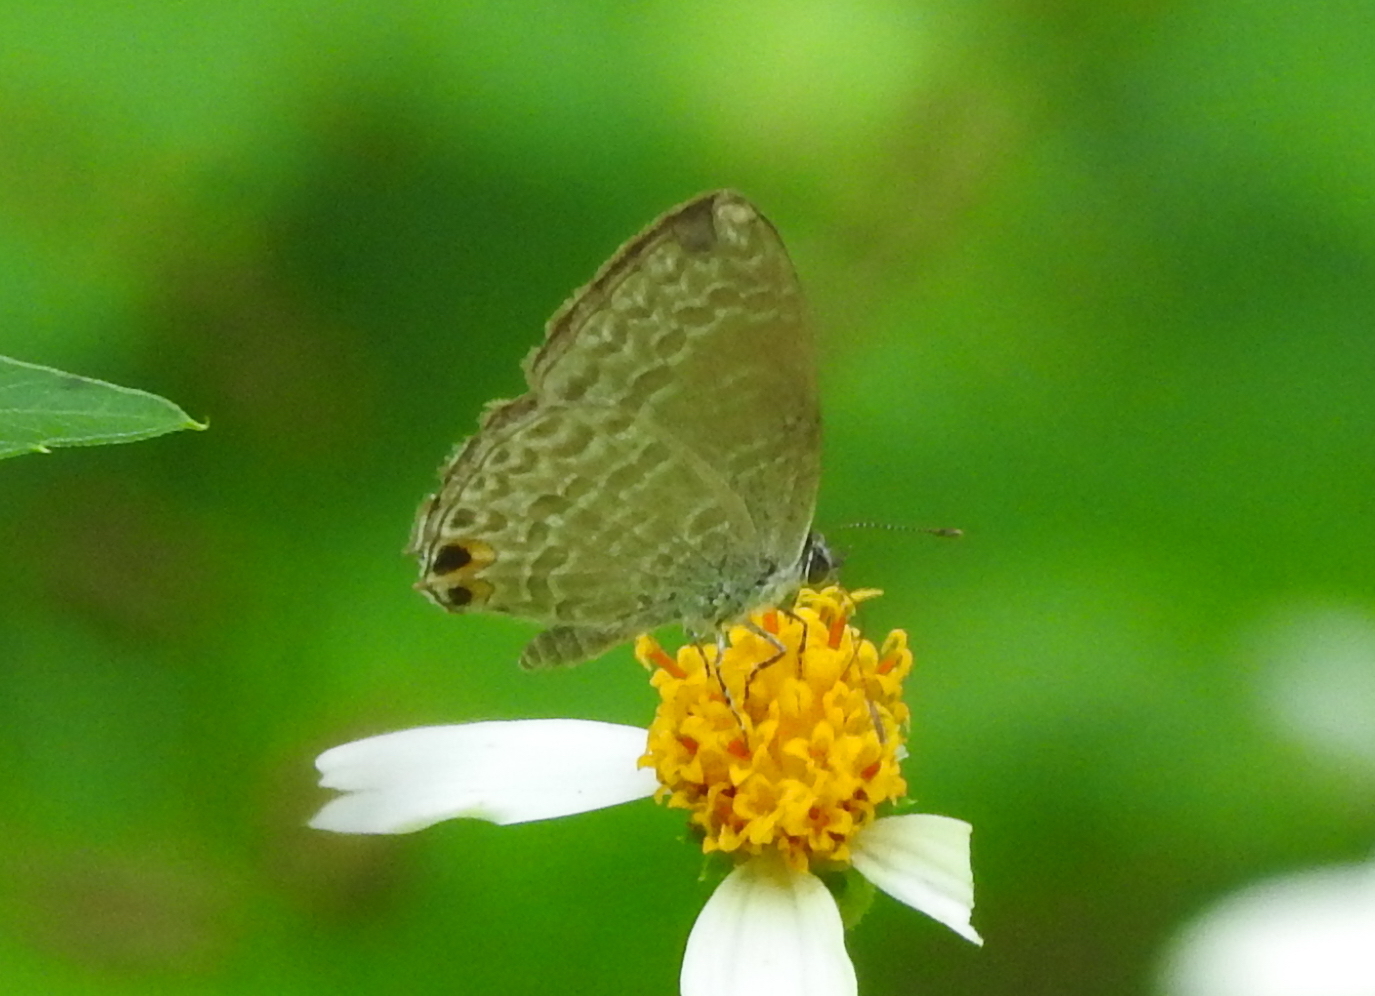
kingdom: Animalia
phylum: Arthropoda
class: Insecta
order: Lepidoptera
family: Lycaenidae
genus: Catopyrops
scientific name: Catopyrops ancyra
